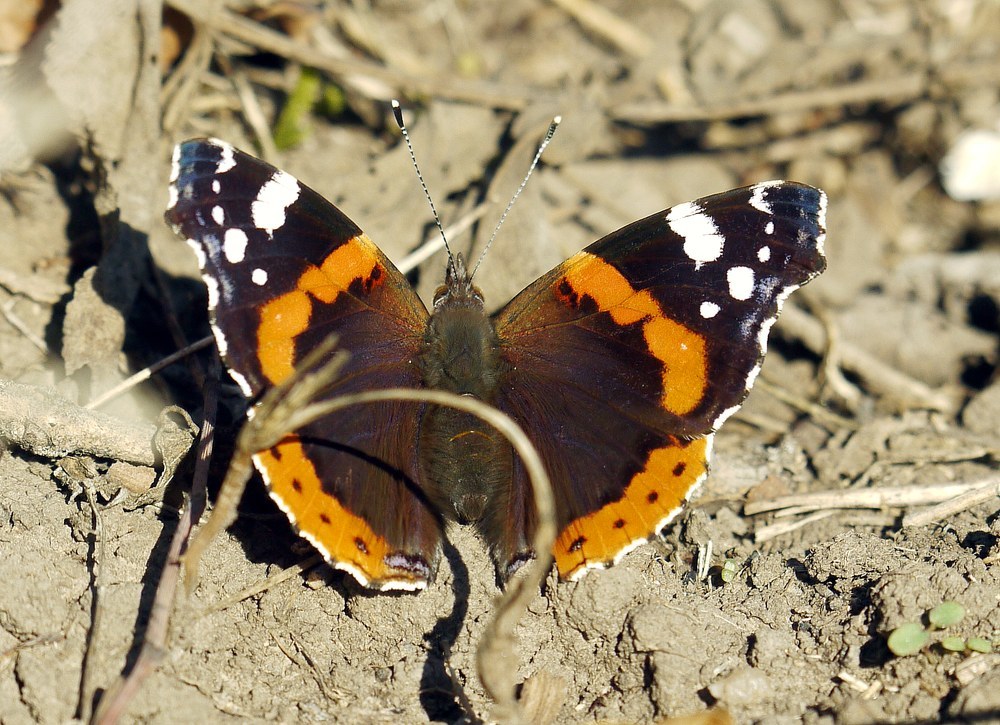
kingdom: Animalia
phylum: Arthropoda
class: Insecta
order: Lepidoptera
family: Nymphalidae
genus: Vanessa
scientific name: Vanessa atalanta
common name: Red admiral
